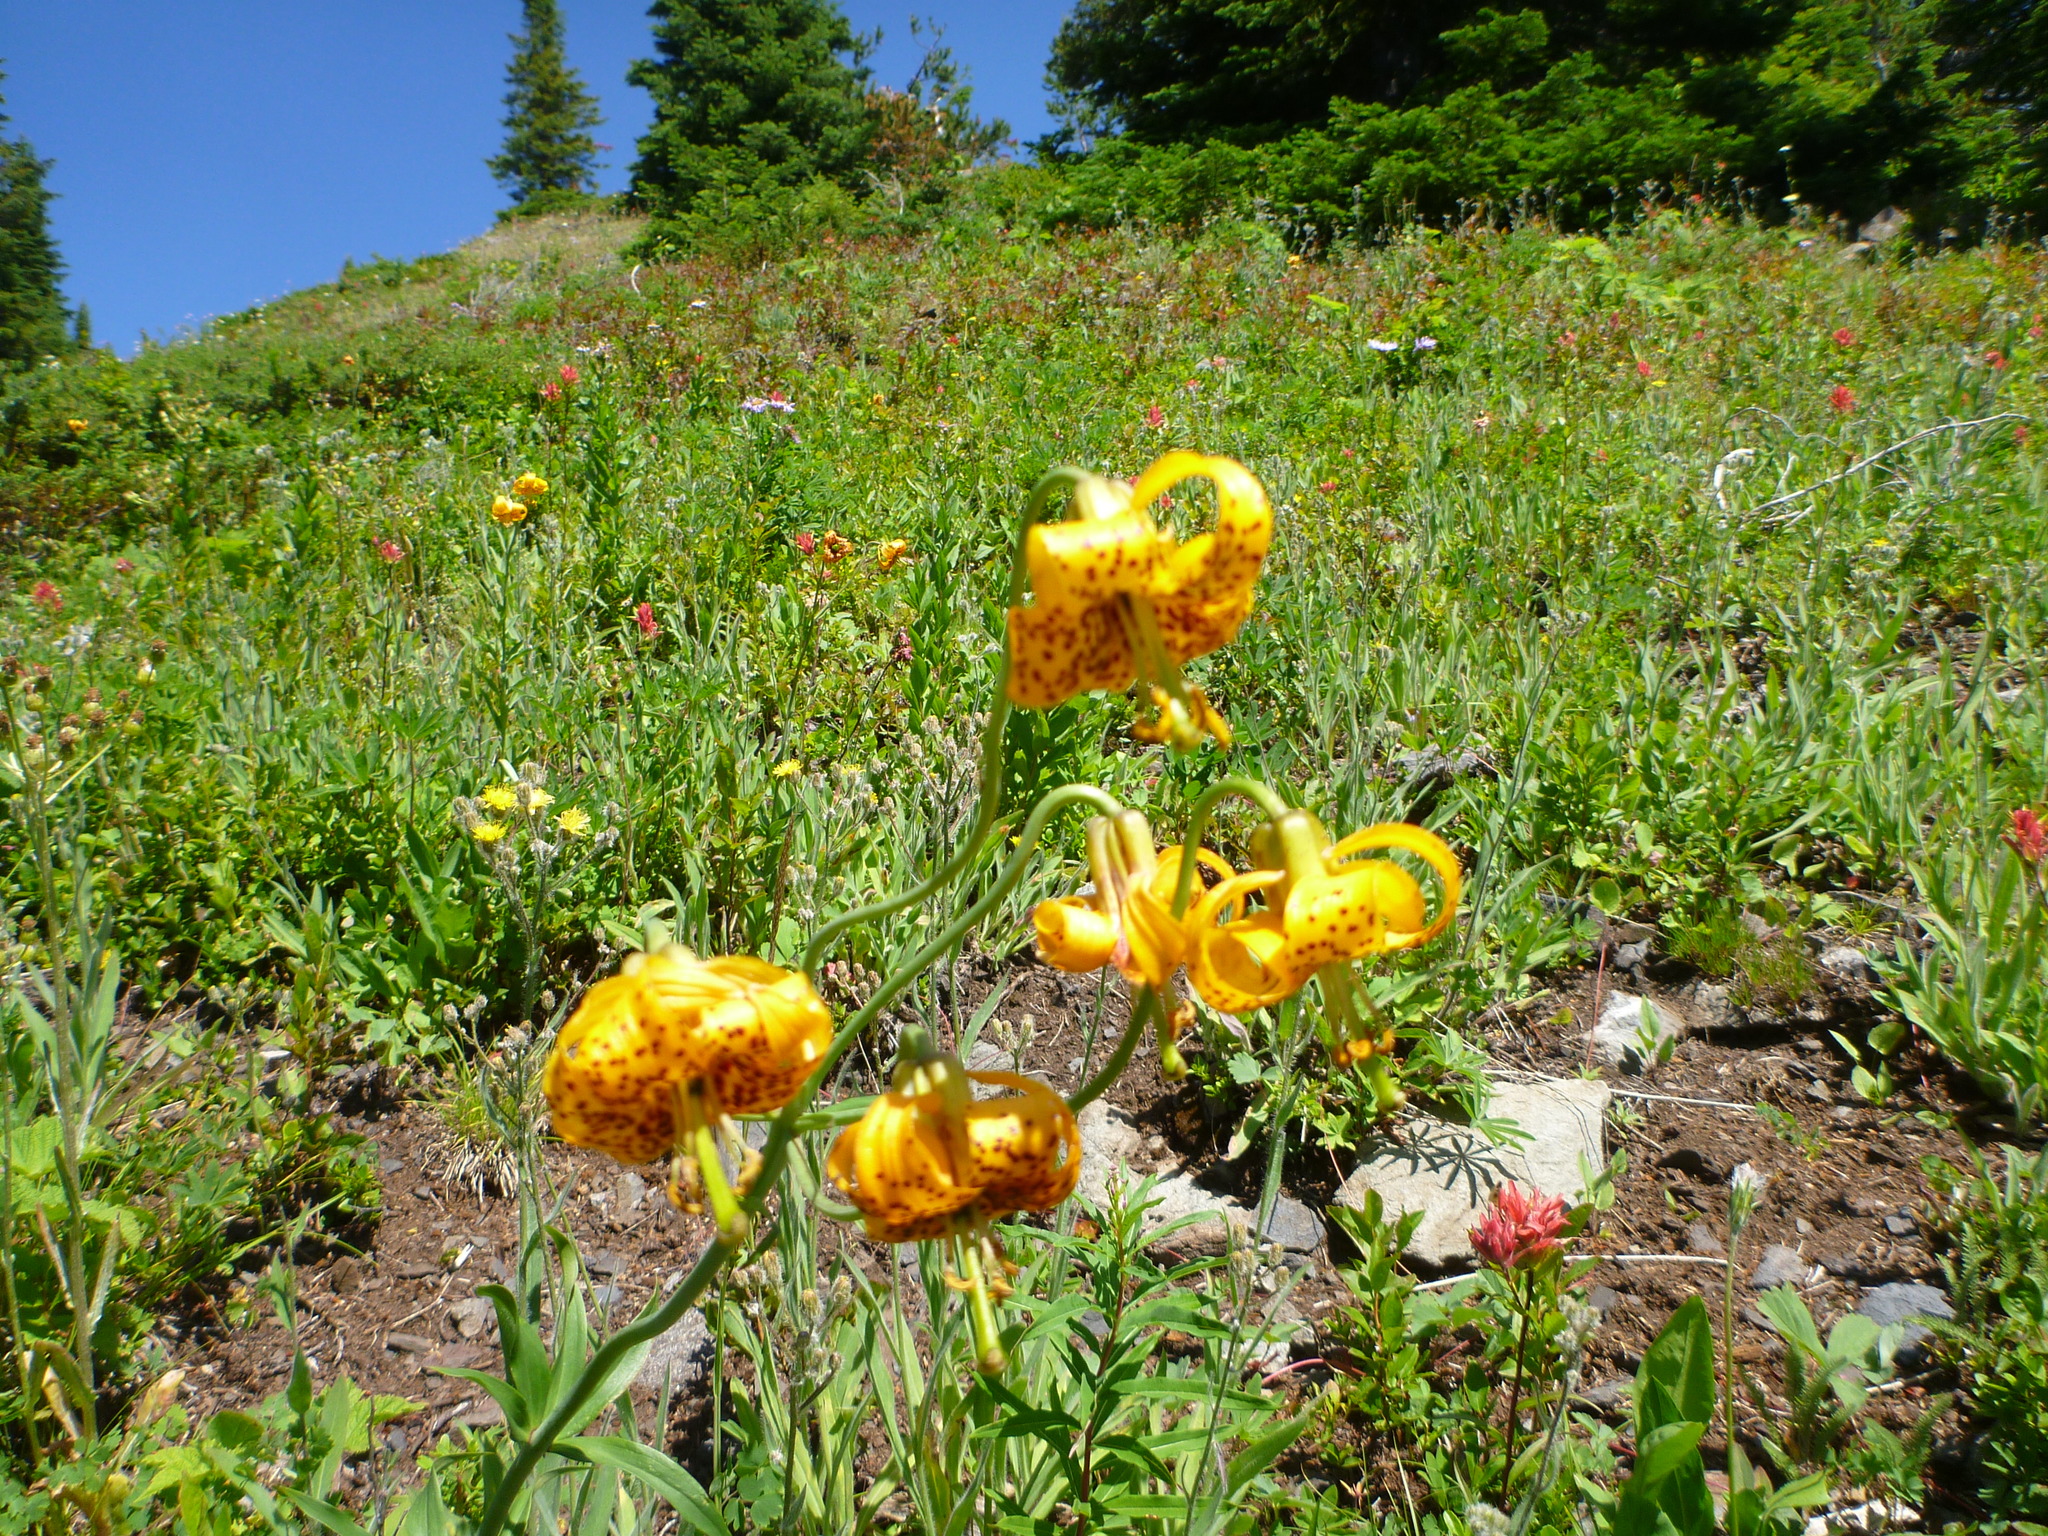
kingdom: Plantae
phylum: Tracheophyta
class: Liliopsida
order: Liliales
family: Liliaceae
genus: Lilium
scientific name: Lilium columbianum
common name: Columbia lily
